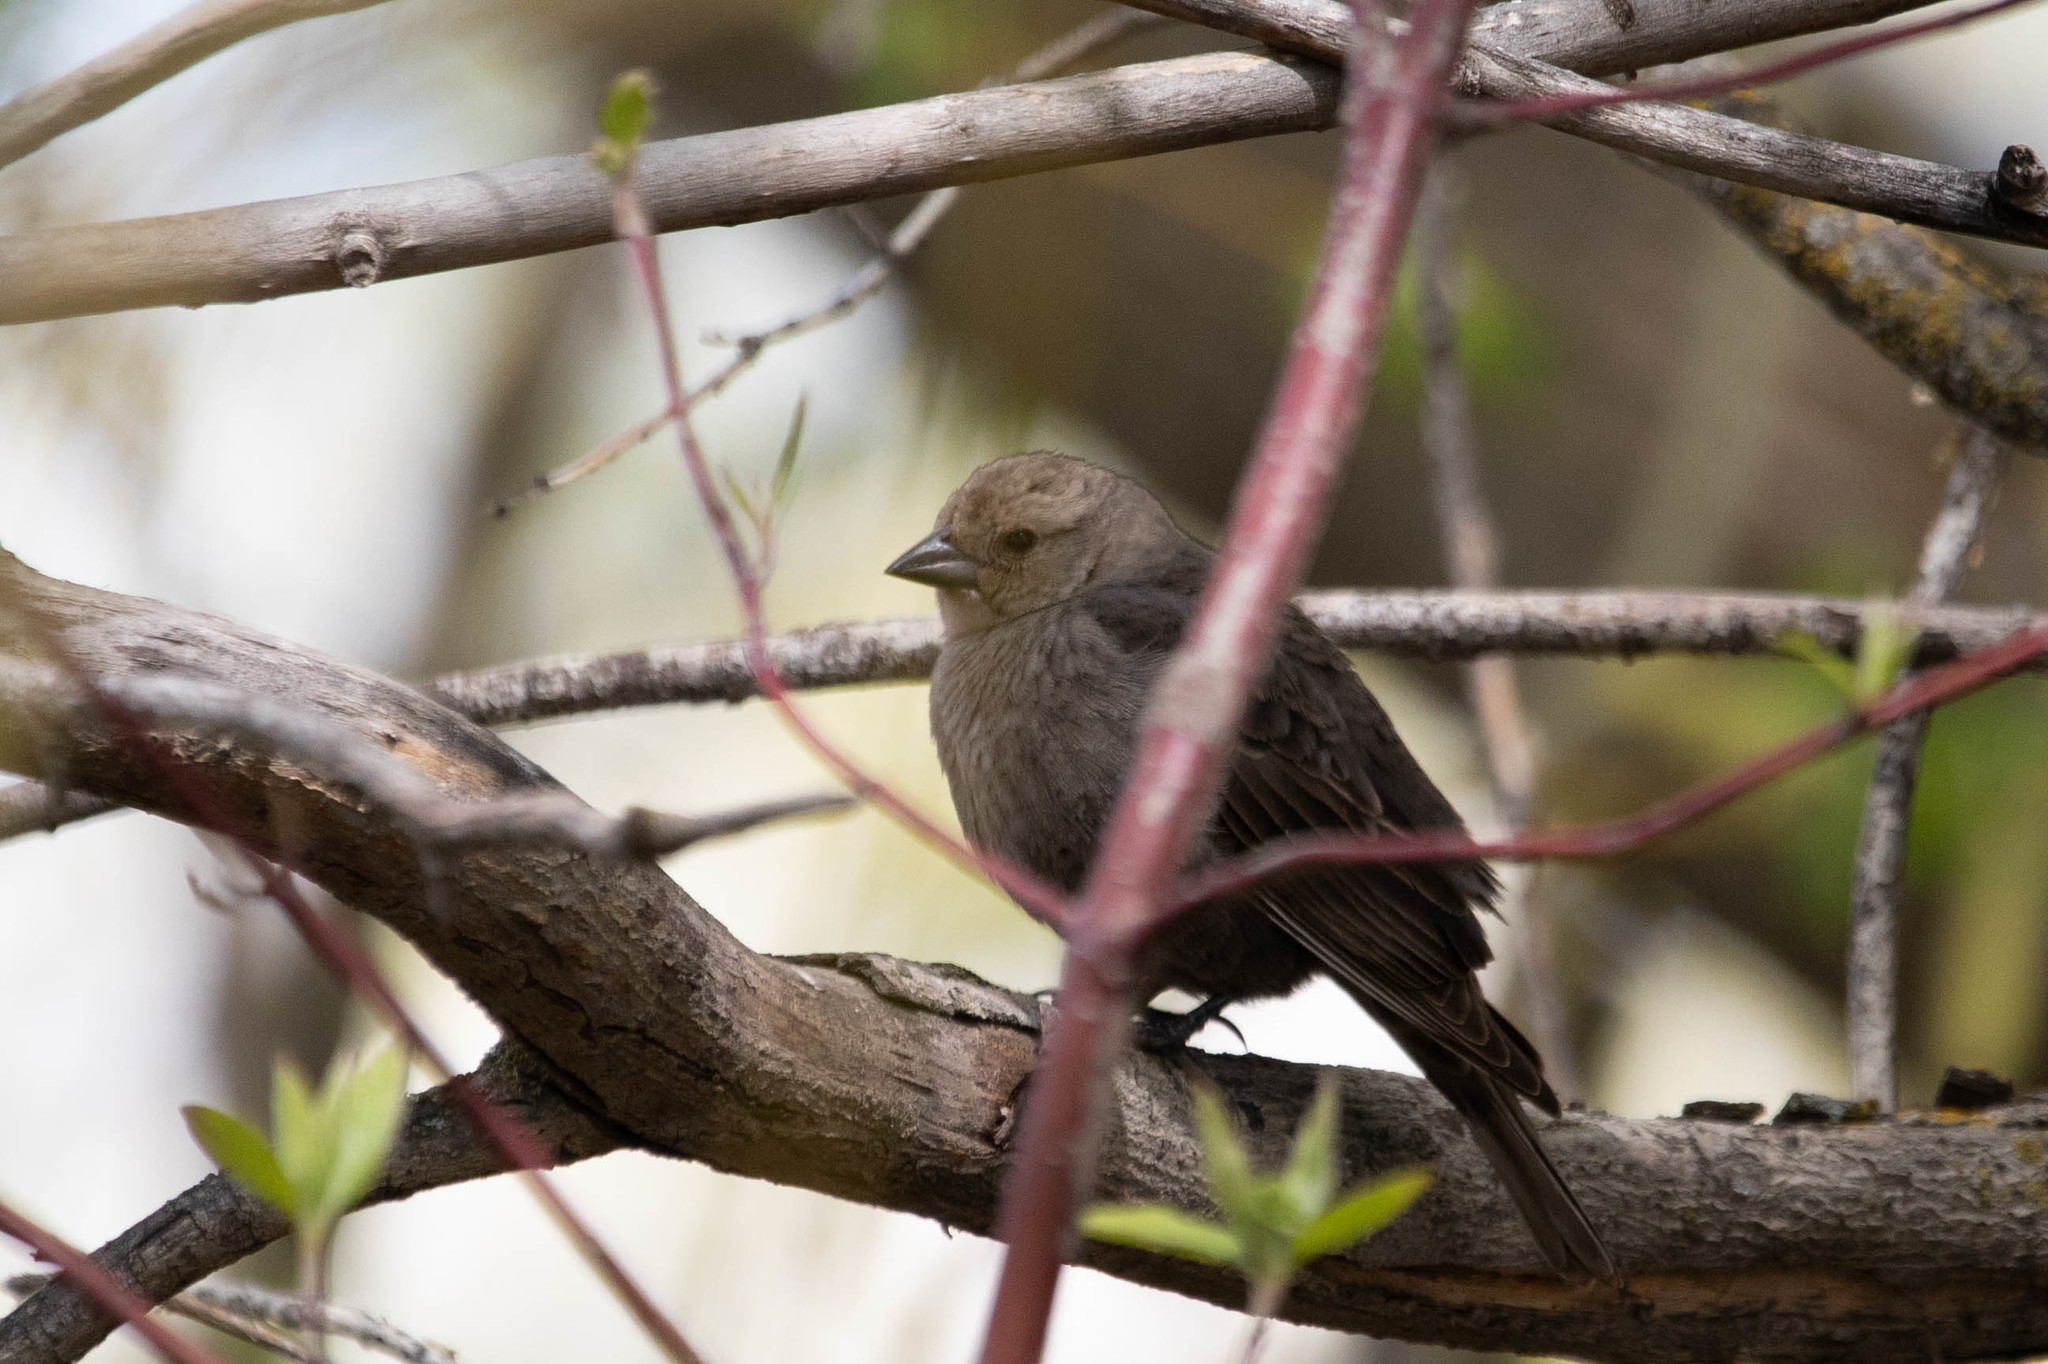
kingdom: Animalia
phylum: Chordata
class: Aves
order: Passeriformes
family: Icteridae
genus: Molothrus
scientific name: Molothrus ater
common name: Brown-headed cowbird
